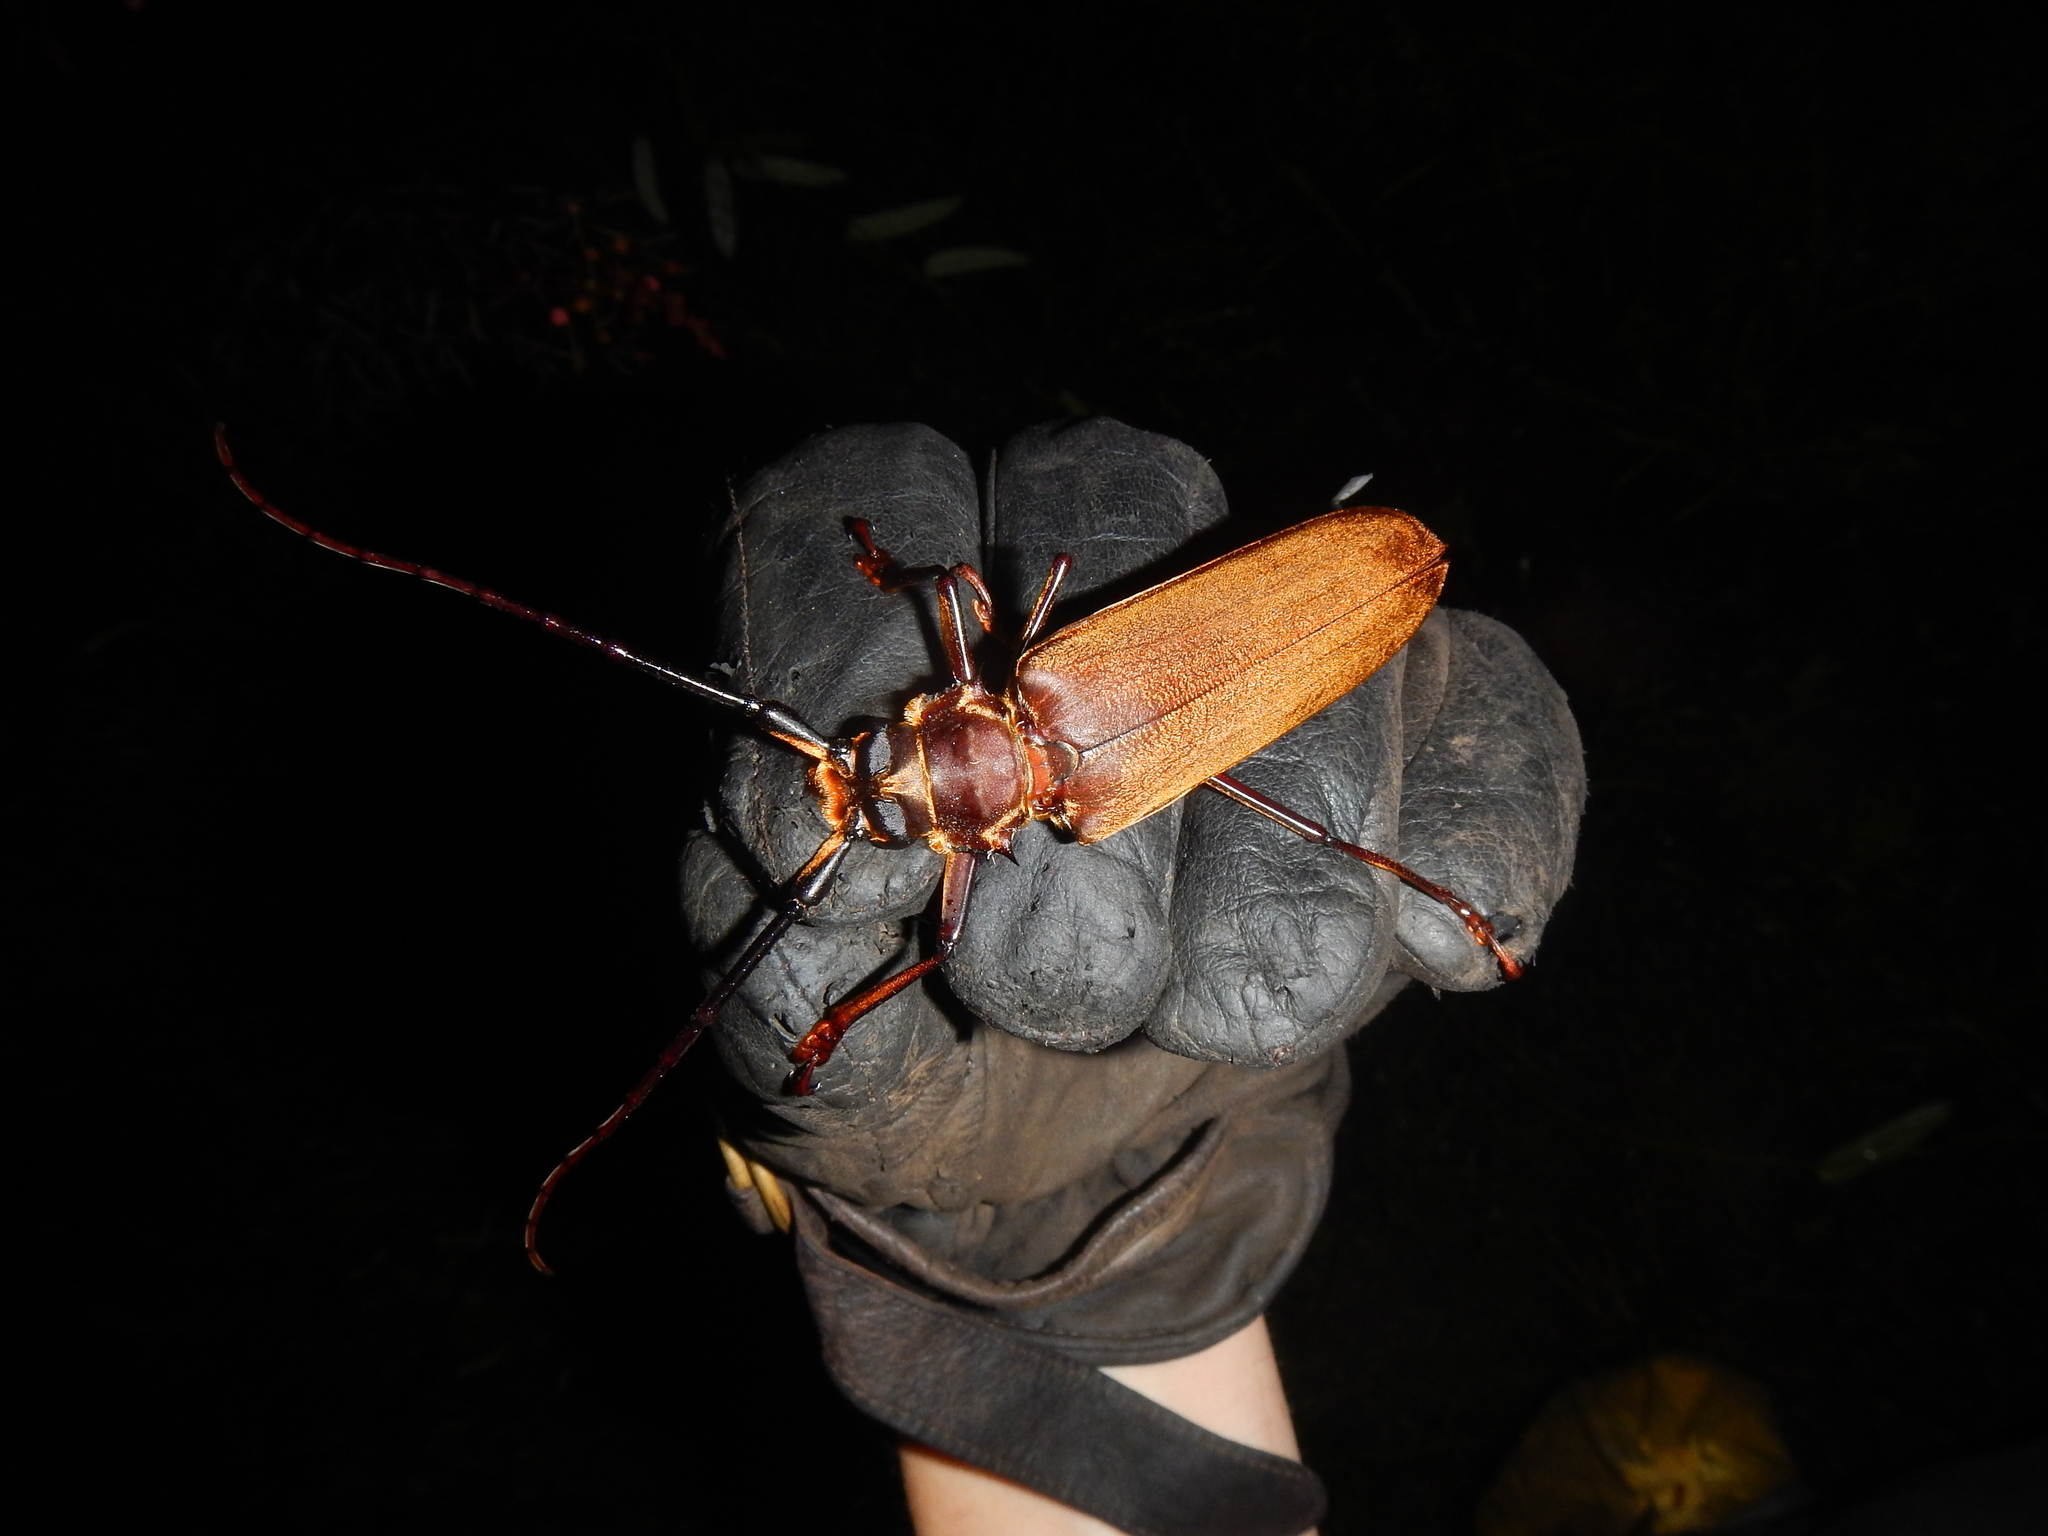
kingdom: Animalia
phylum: Arthropoda
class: Insecta
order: Coleoptera
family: Cerambycidae
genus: Orthomegas
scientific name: Orthomegas maryae
